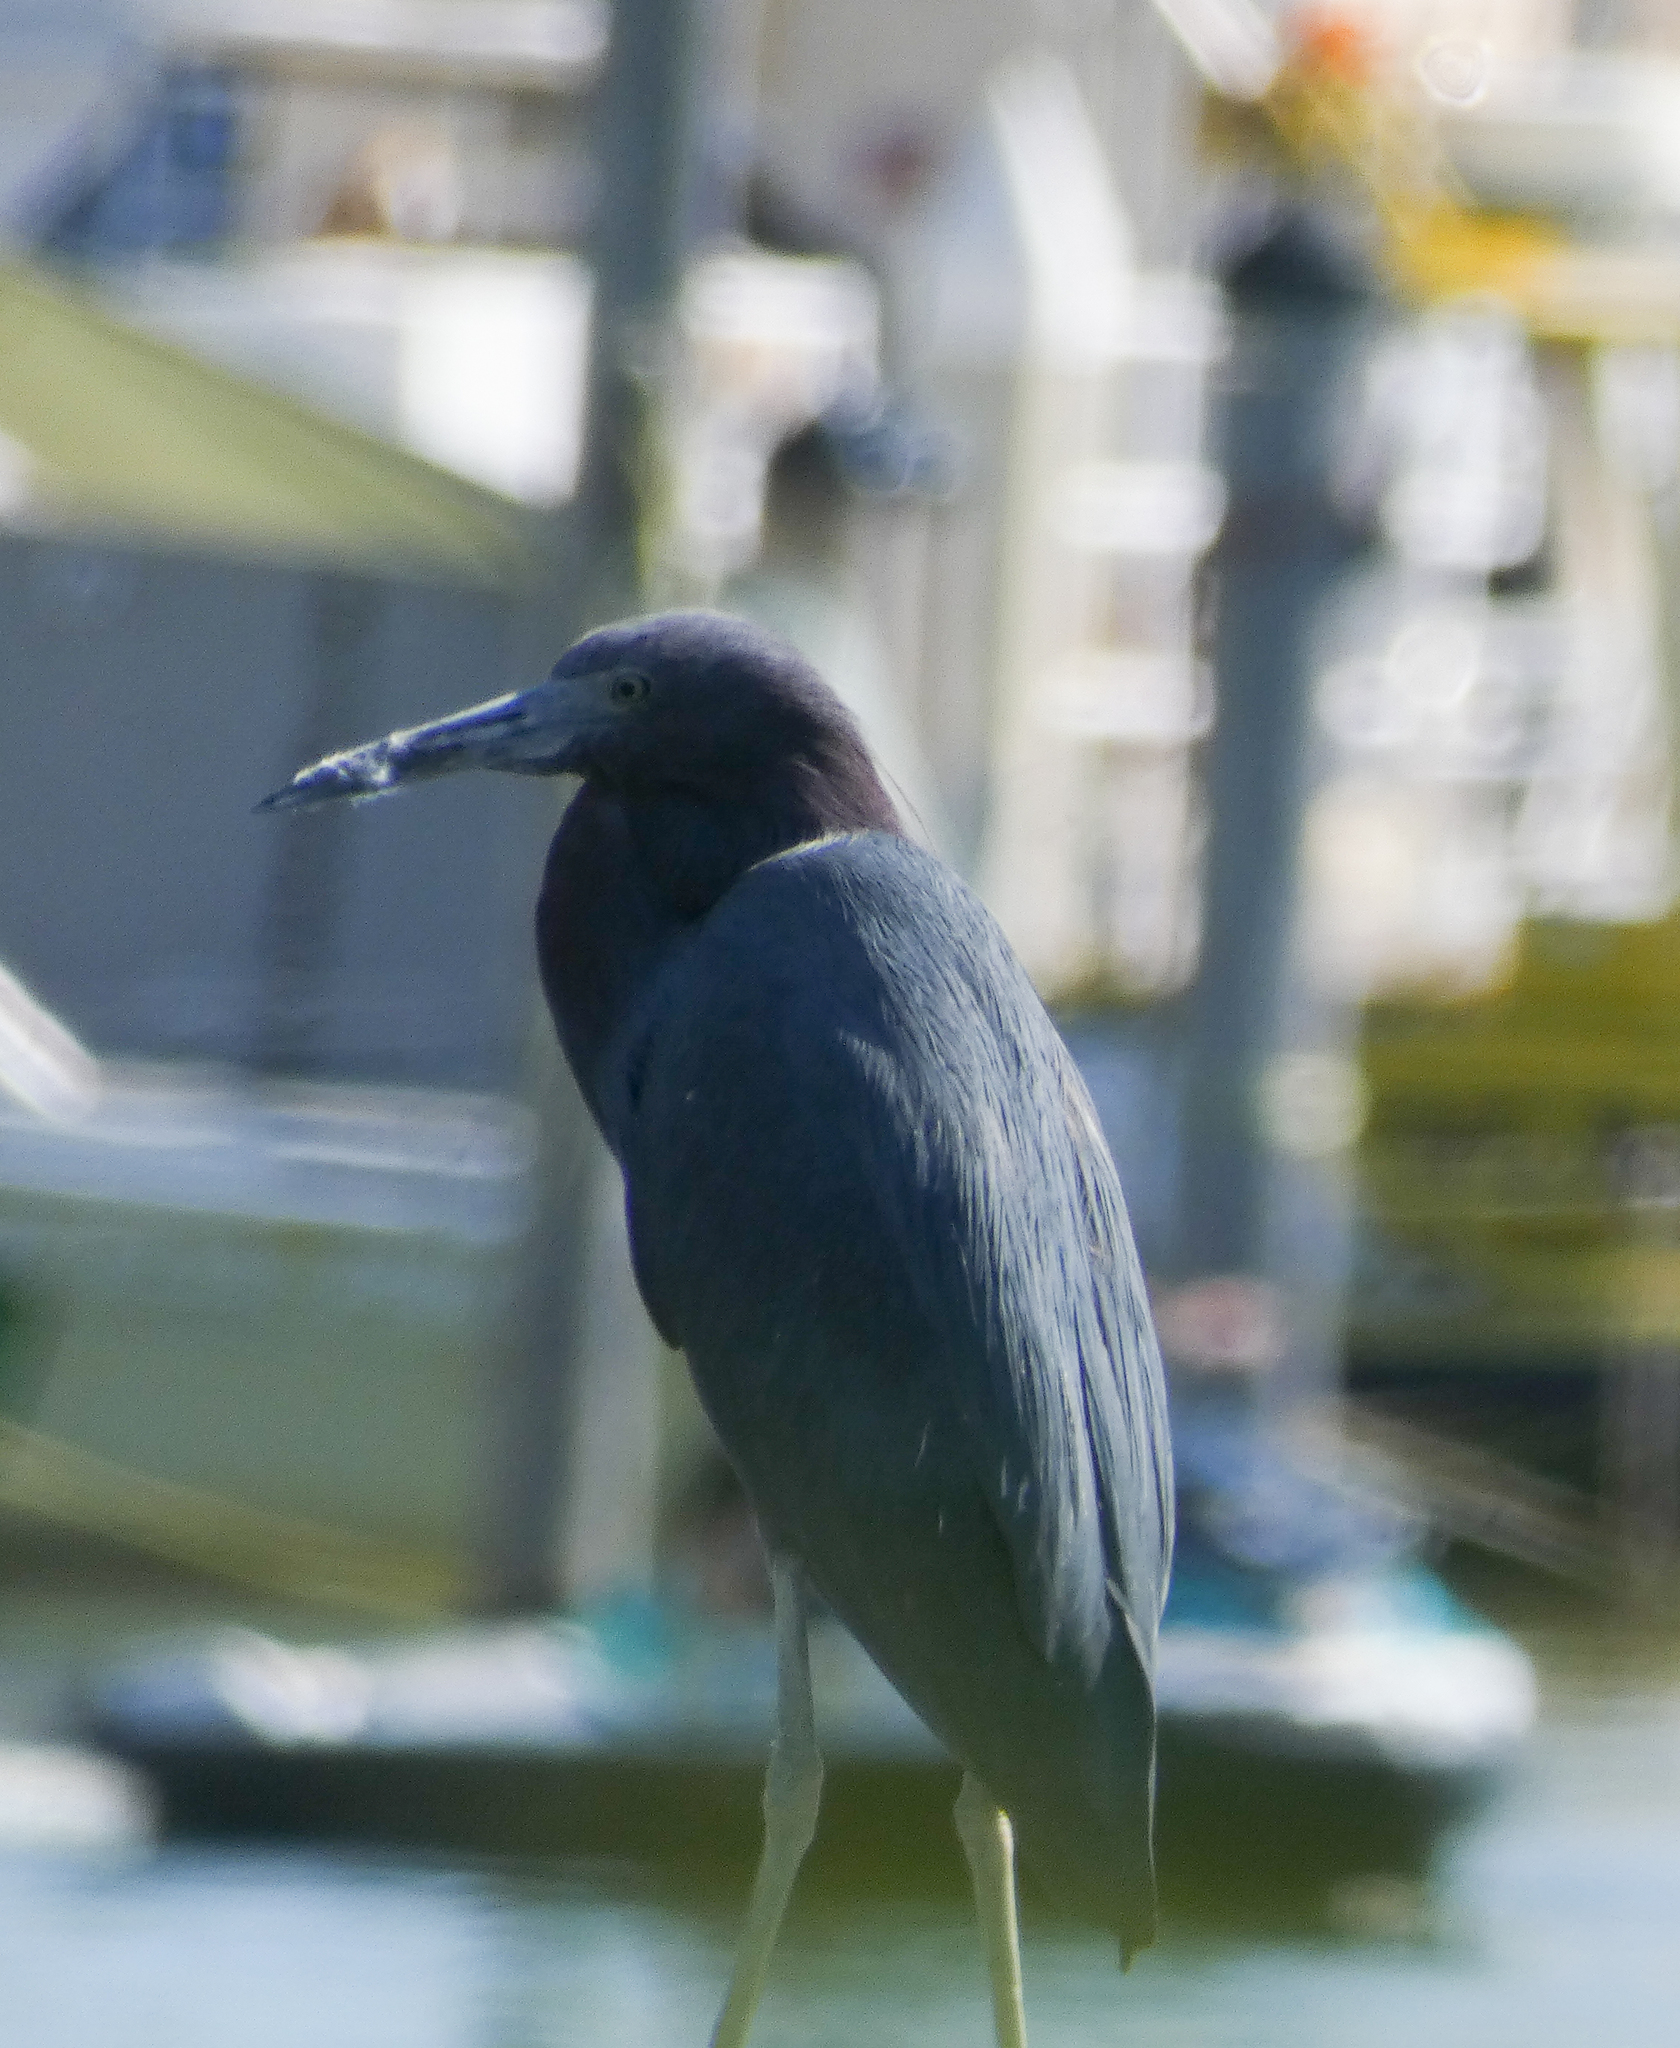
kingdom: Animalia
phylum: Chordata
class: Aves
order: Pelecaniformes
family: Ardeidae
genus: Egretta
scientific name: Egretta caerulea
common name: Little blue heron
